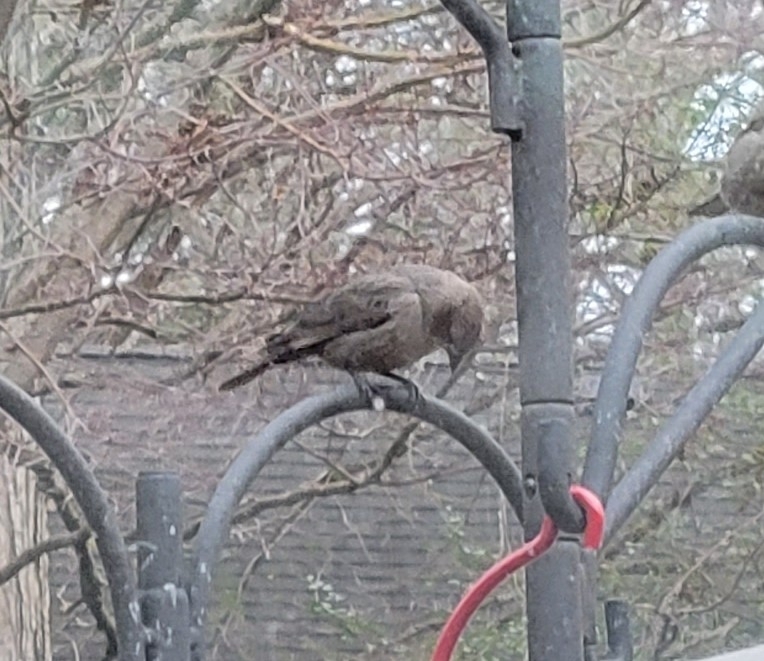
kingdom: Animalia
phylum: Chordata
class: Aves
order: Passeriformes
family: Icteridae
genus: Molothrus
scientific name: Molothrus ater
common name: Brown-headed cowbird
